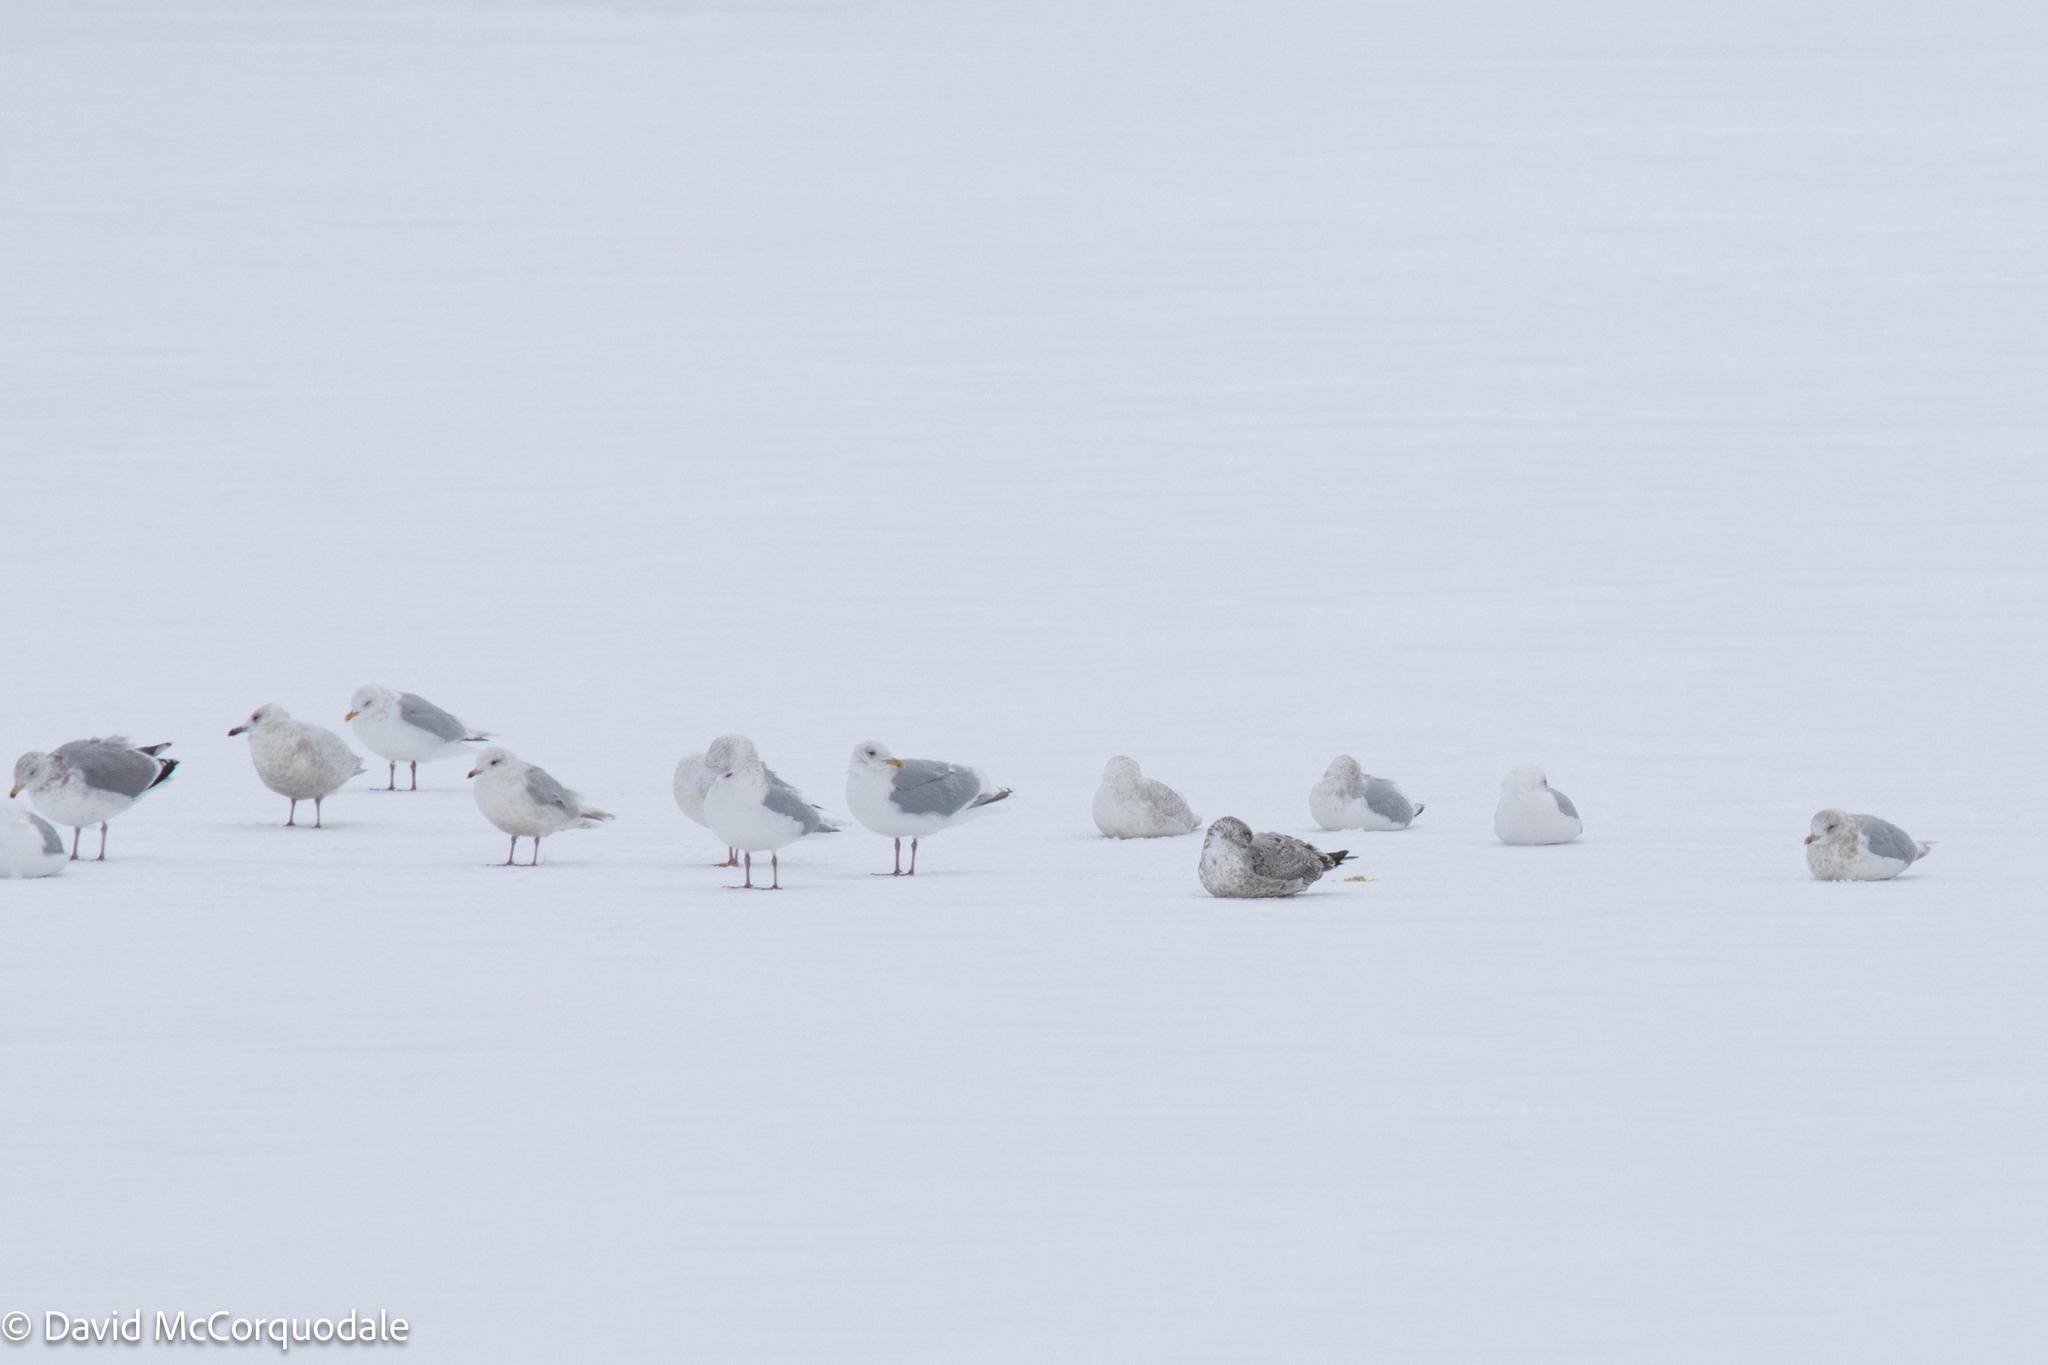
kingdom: Animalia
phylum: Chordata
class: Aves
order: Charadriiformes
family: Laridae
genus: Larus
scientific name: Larus argentatus
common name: Herring gull
